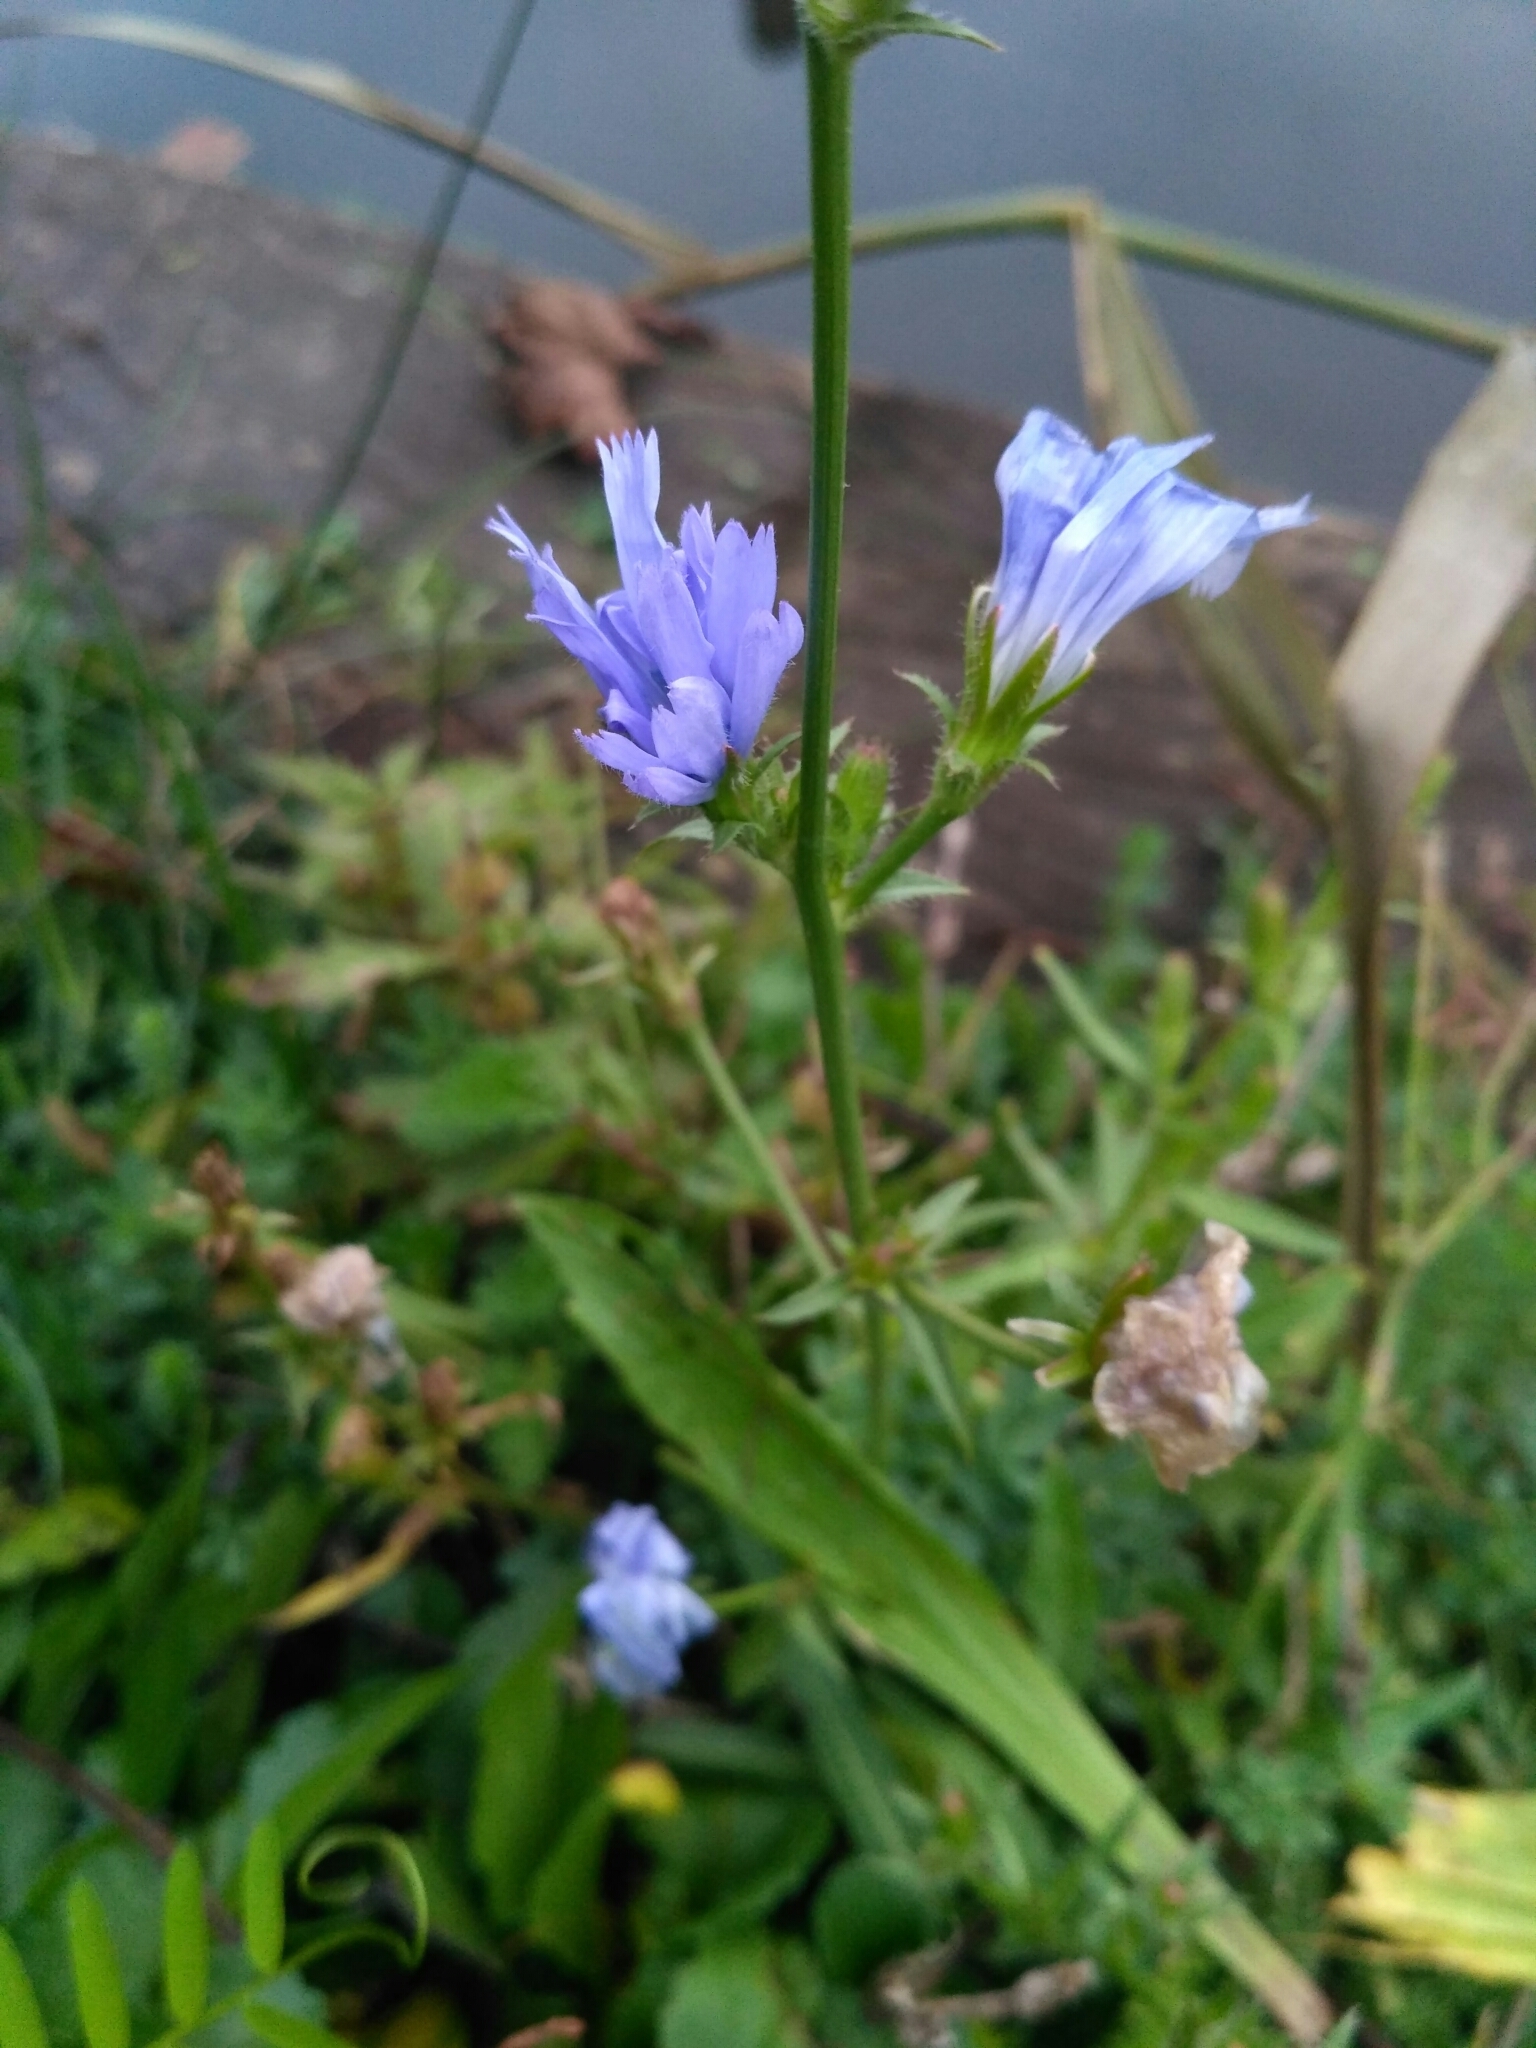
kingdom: Plantae
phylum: Tracheophyta
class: Magnoliopsida
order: Asterales
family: Asteraceae
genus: Cichorium
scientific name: Cichorium intybus
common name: Chicory
